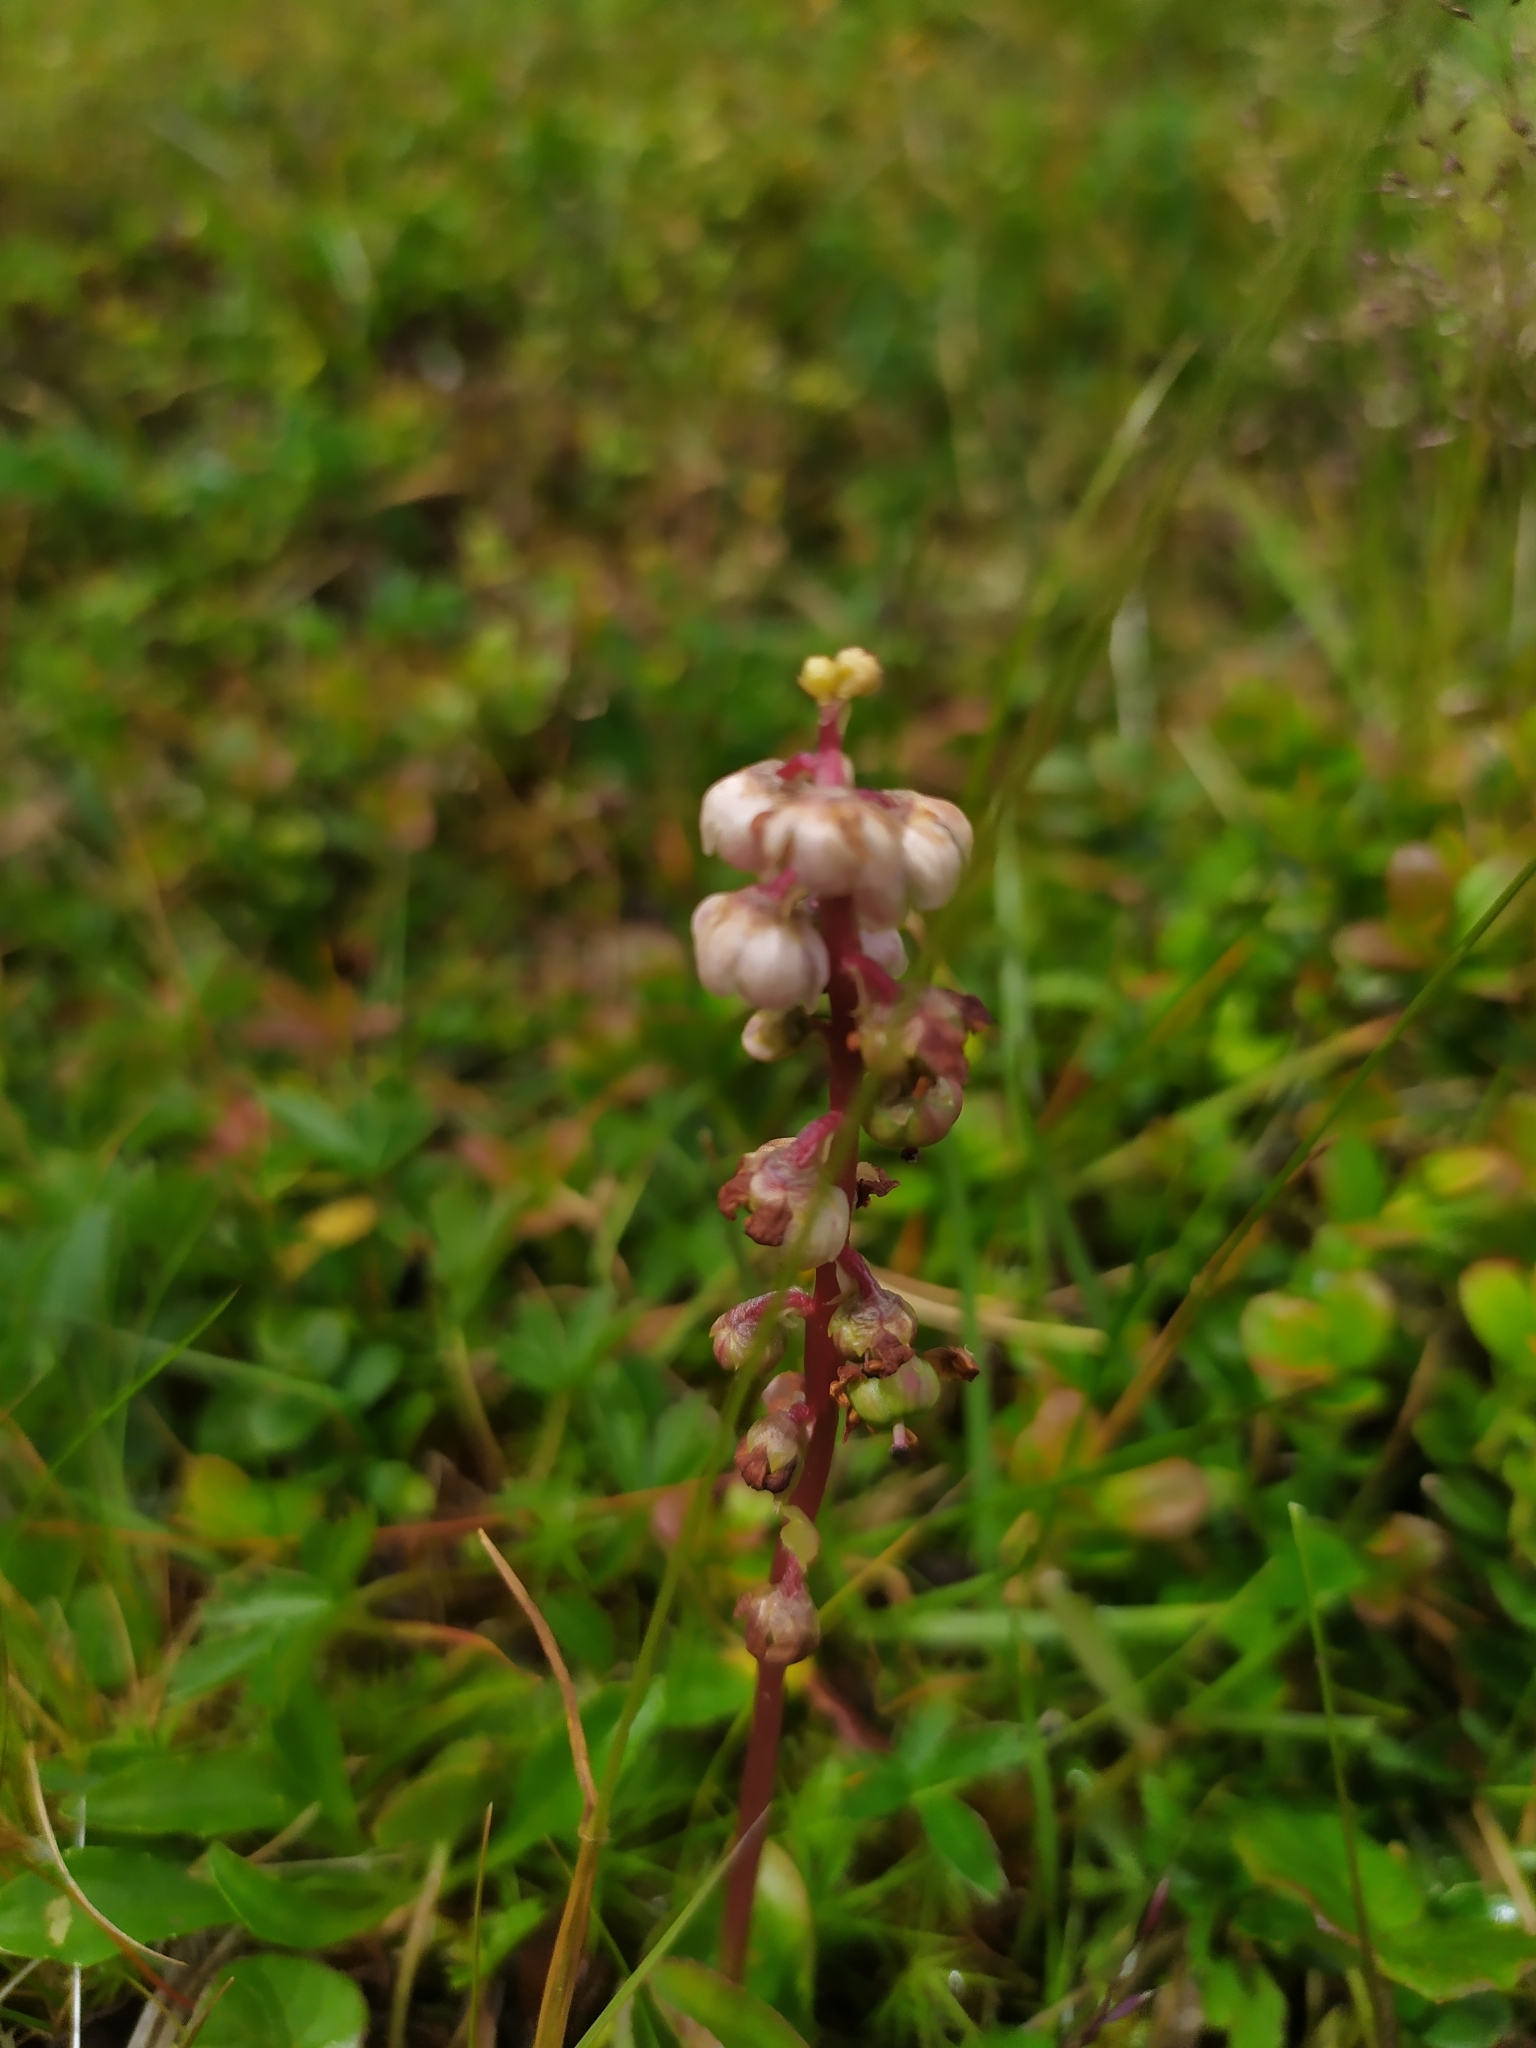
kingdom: Plantae
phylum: Tracheophyta
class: Magnoliopsida
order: Ericales
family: Ericaceae
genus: Pyrola
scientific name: Pyrola minor
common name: Common wintergreen
